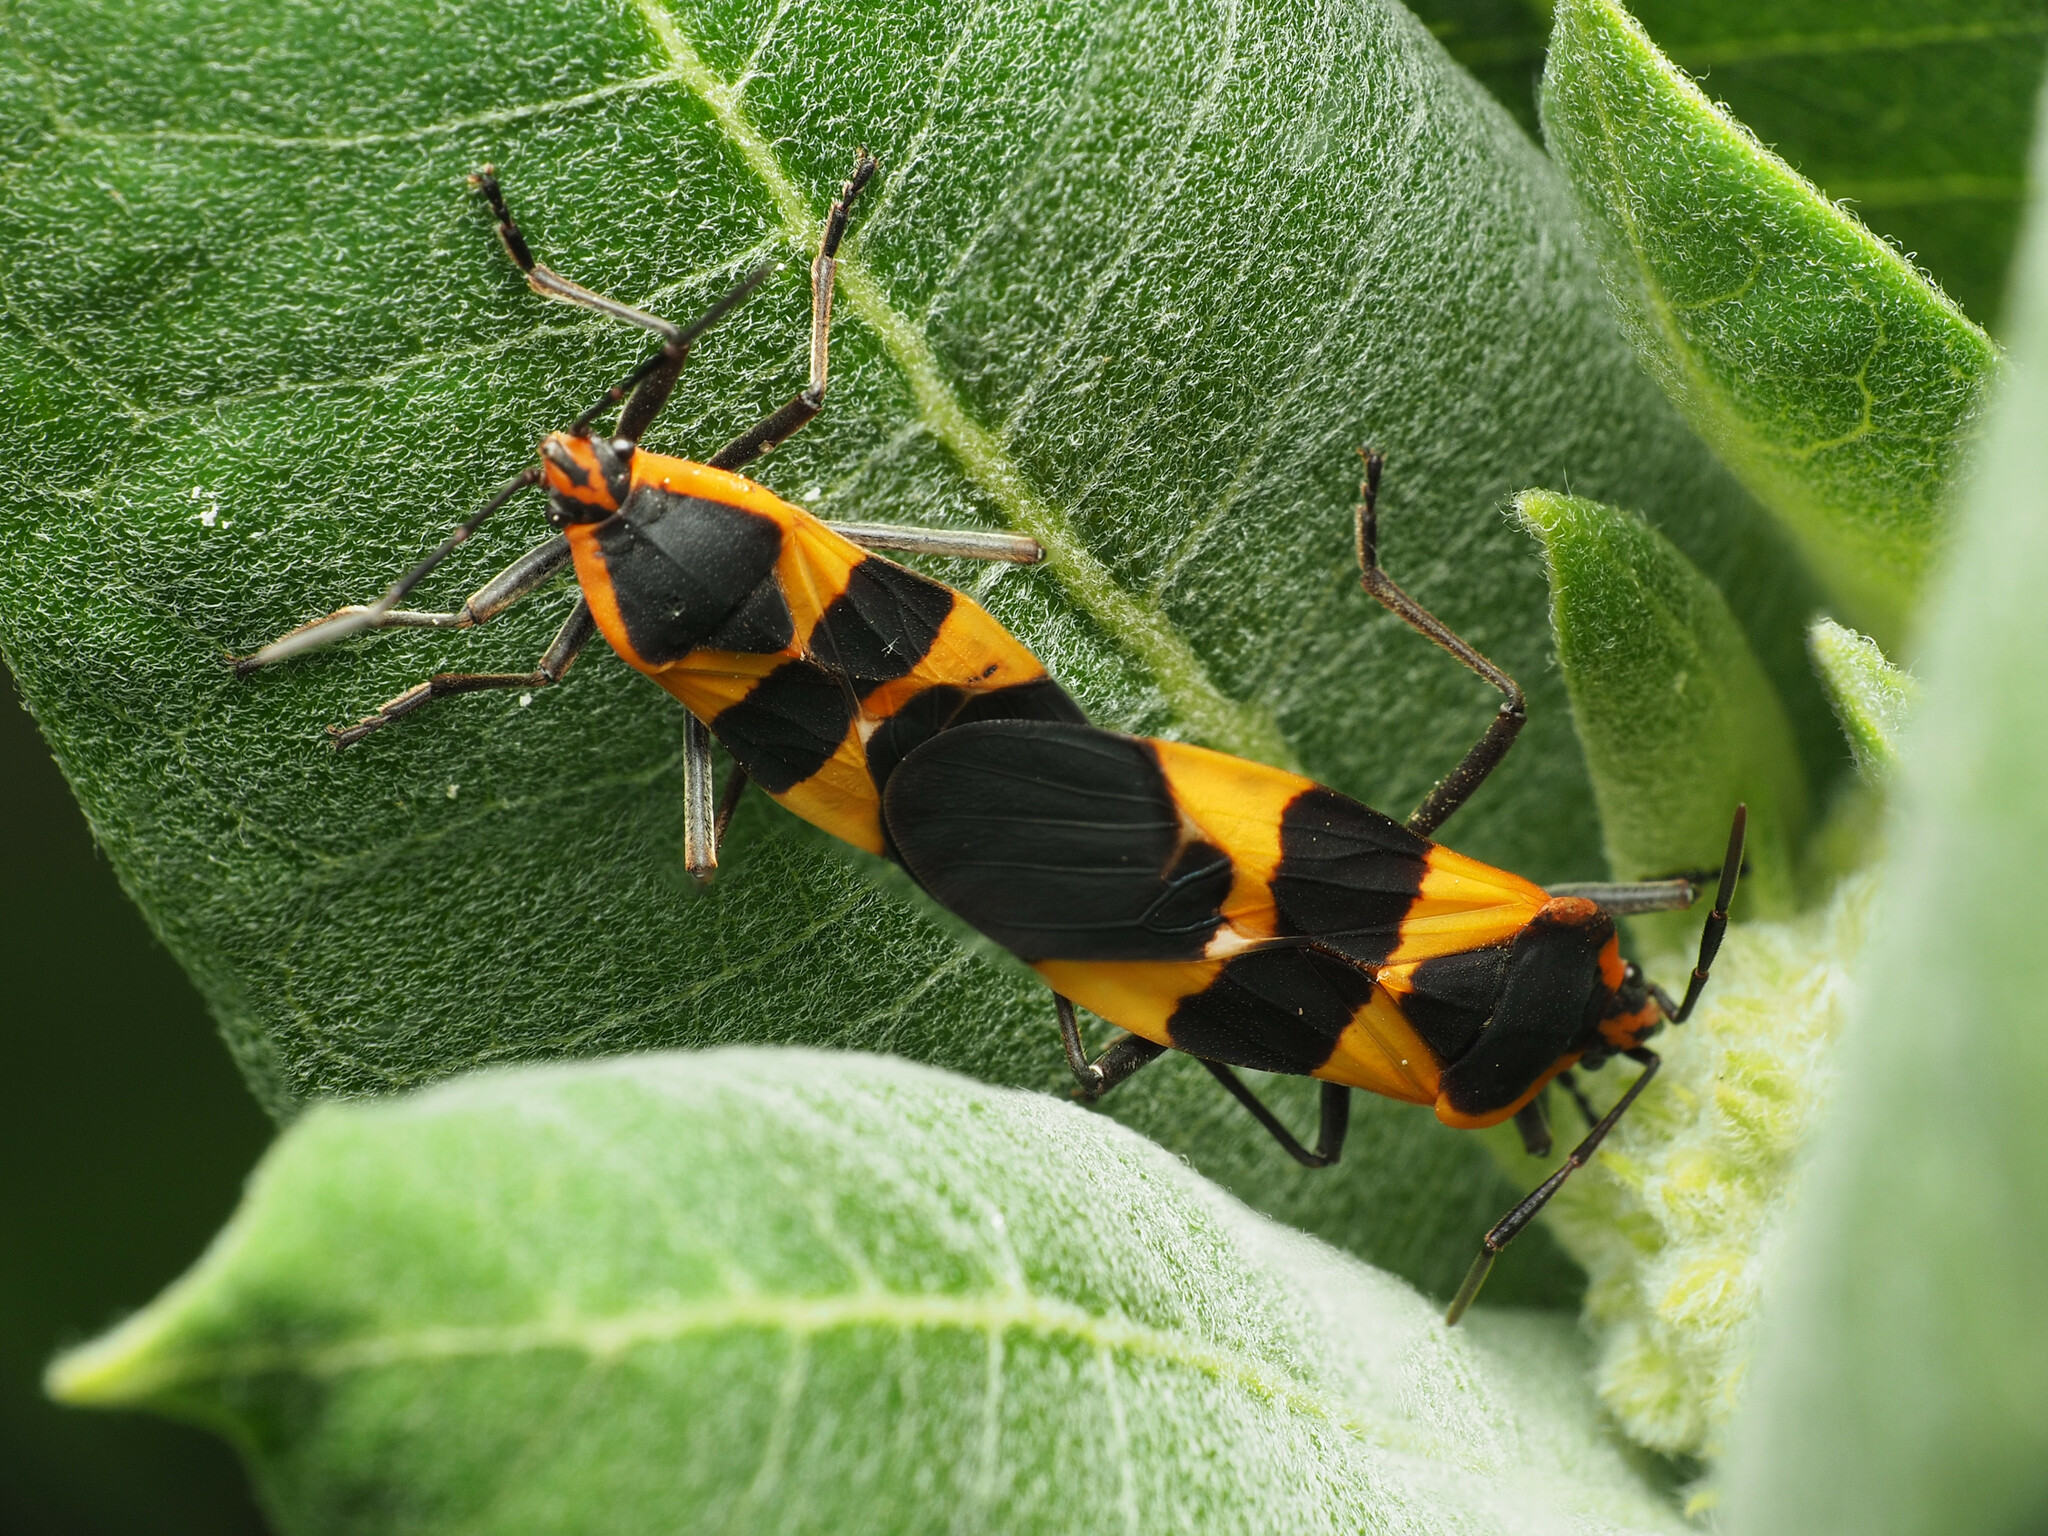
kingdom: Animalia
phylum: Arthropoda
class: Insecta
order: Hemiptera
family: Lygaeidae
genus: Oncopeltus
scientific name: Oncopeltus fasciatus
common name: Large milkweed bug
